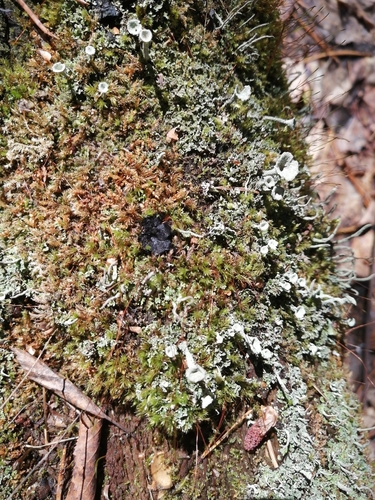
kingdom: Fungi
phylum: Ascomycota
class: Pezizomycetes
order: Pezizales
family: Sarcosomataceae
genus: Pseudoplectania
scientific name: Pseudoplectania nigrella
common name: Ebony cup
